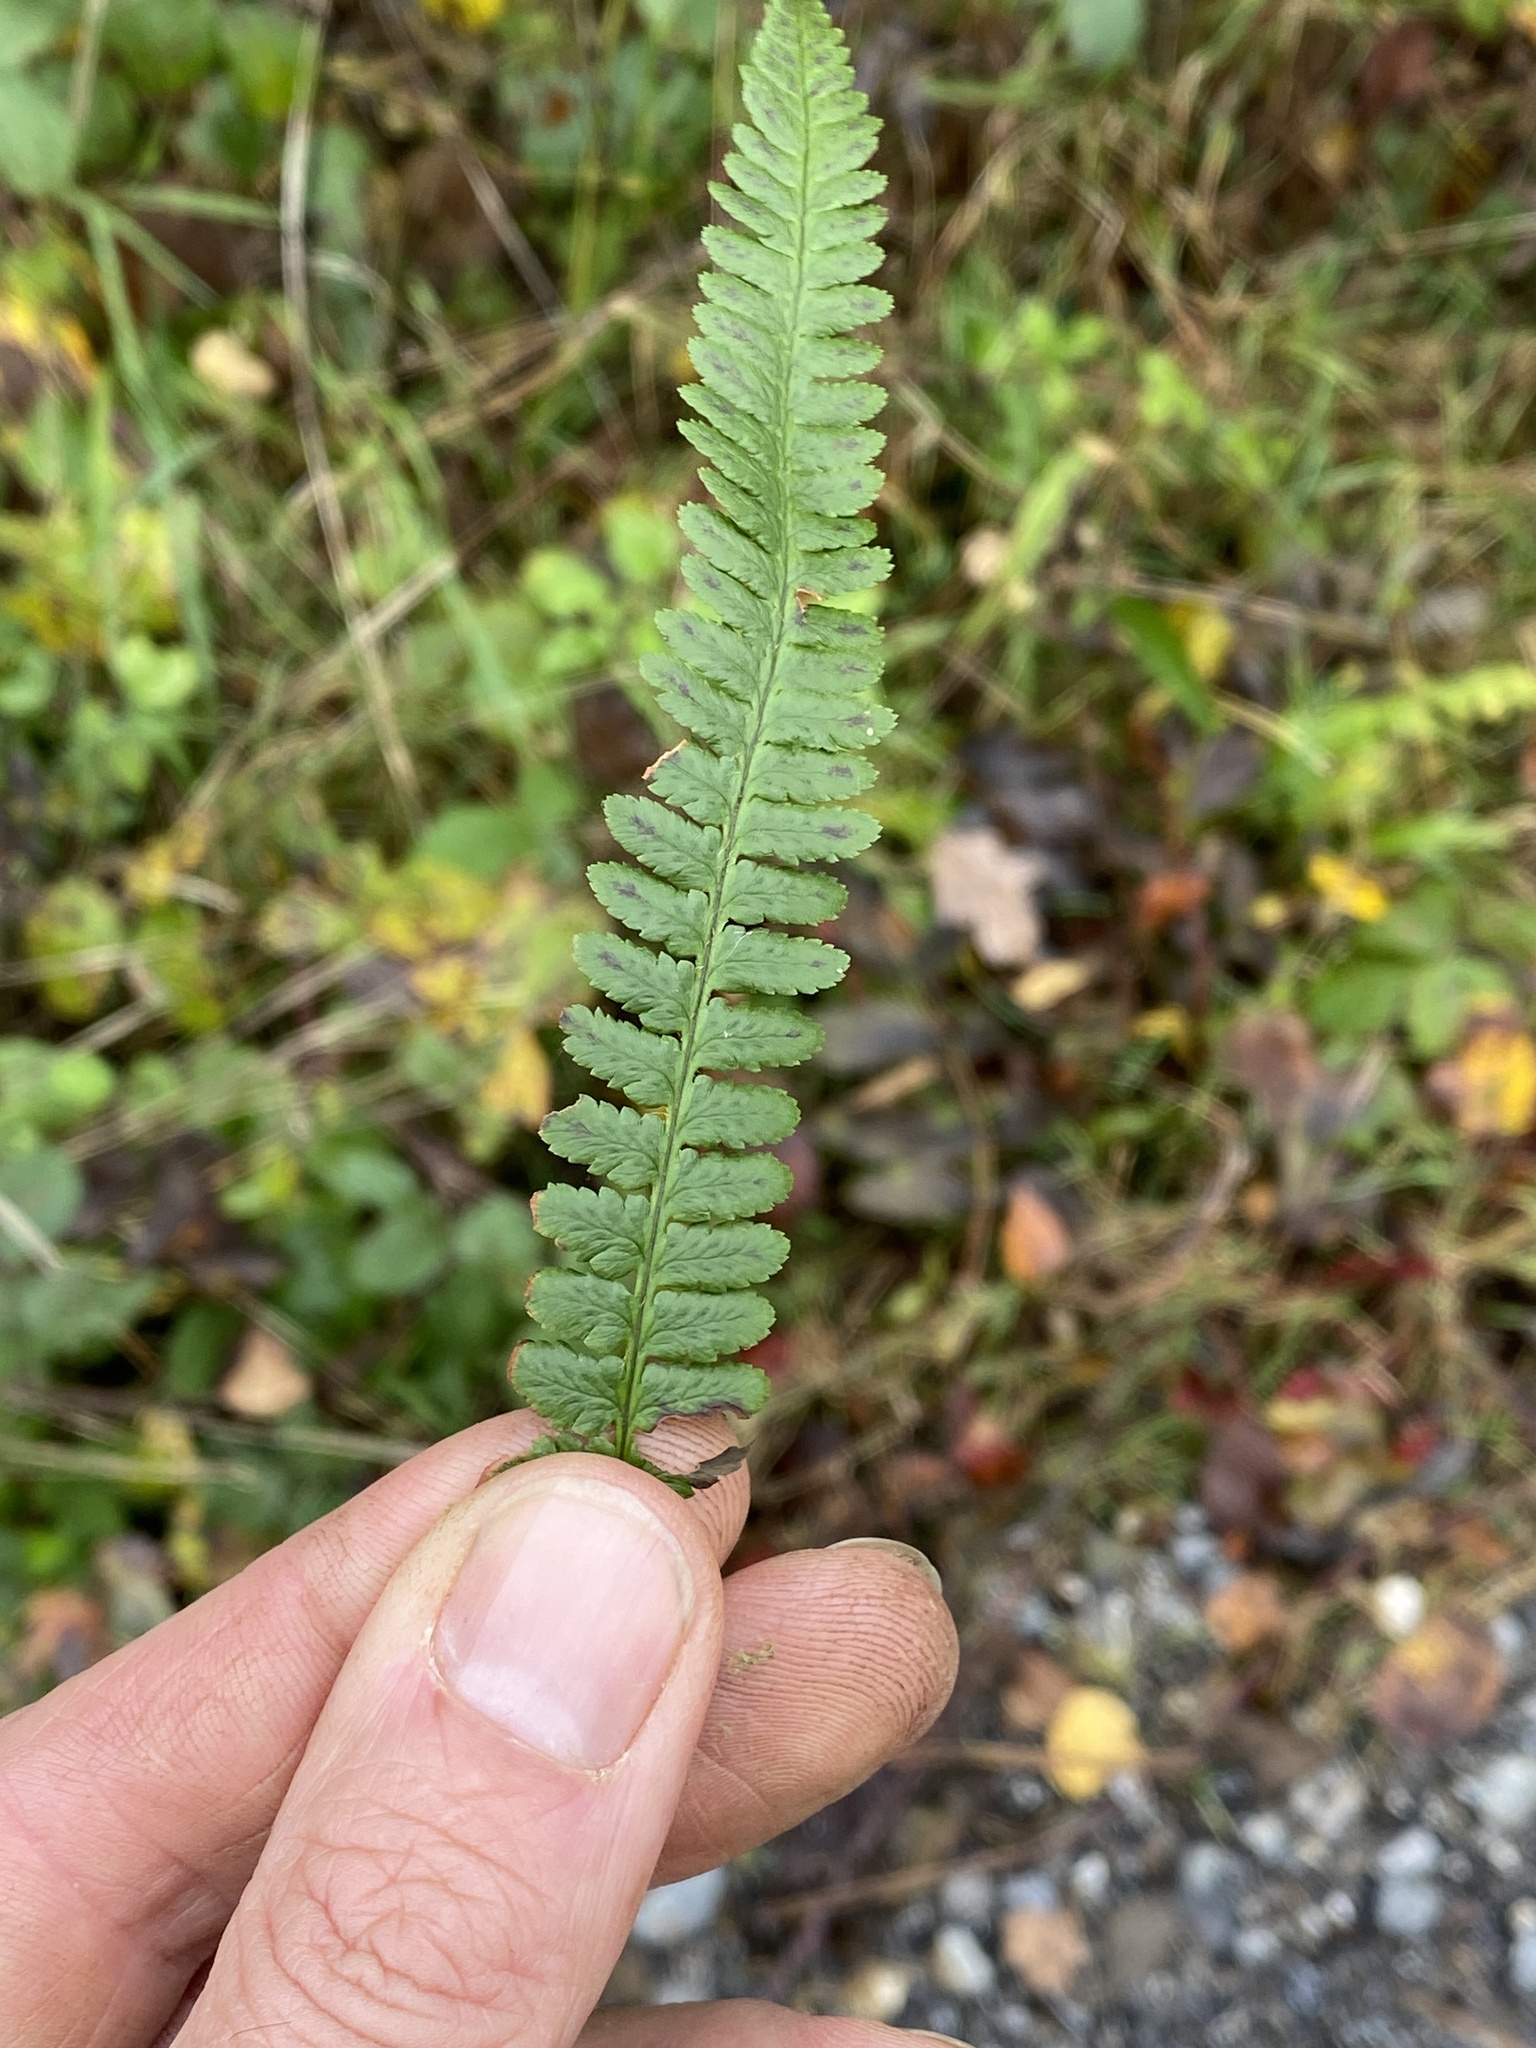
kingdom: Plantae
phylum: Tracheophyta
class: Polypodiopsida
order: Polypodiales
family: Dryopteridaceae
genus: Dryopteris
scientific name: Dryopteris filix-mas
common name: Male fern
